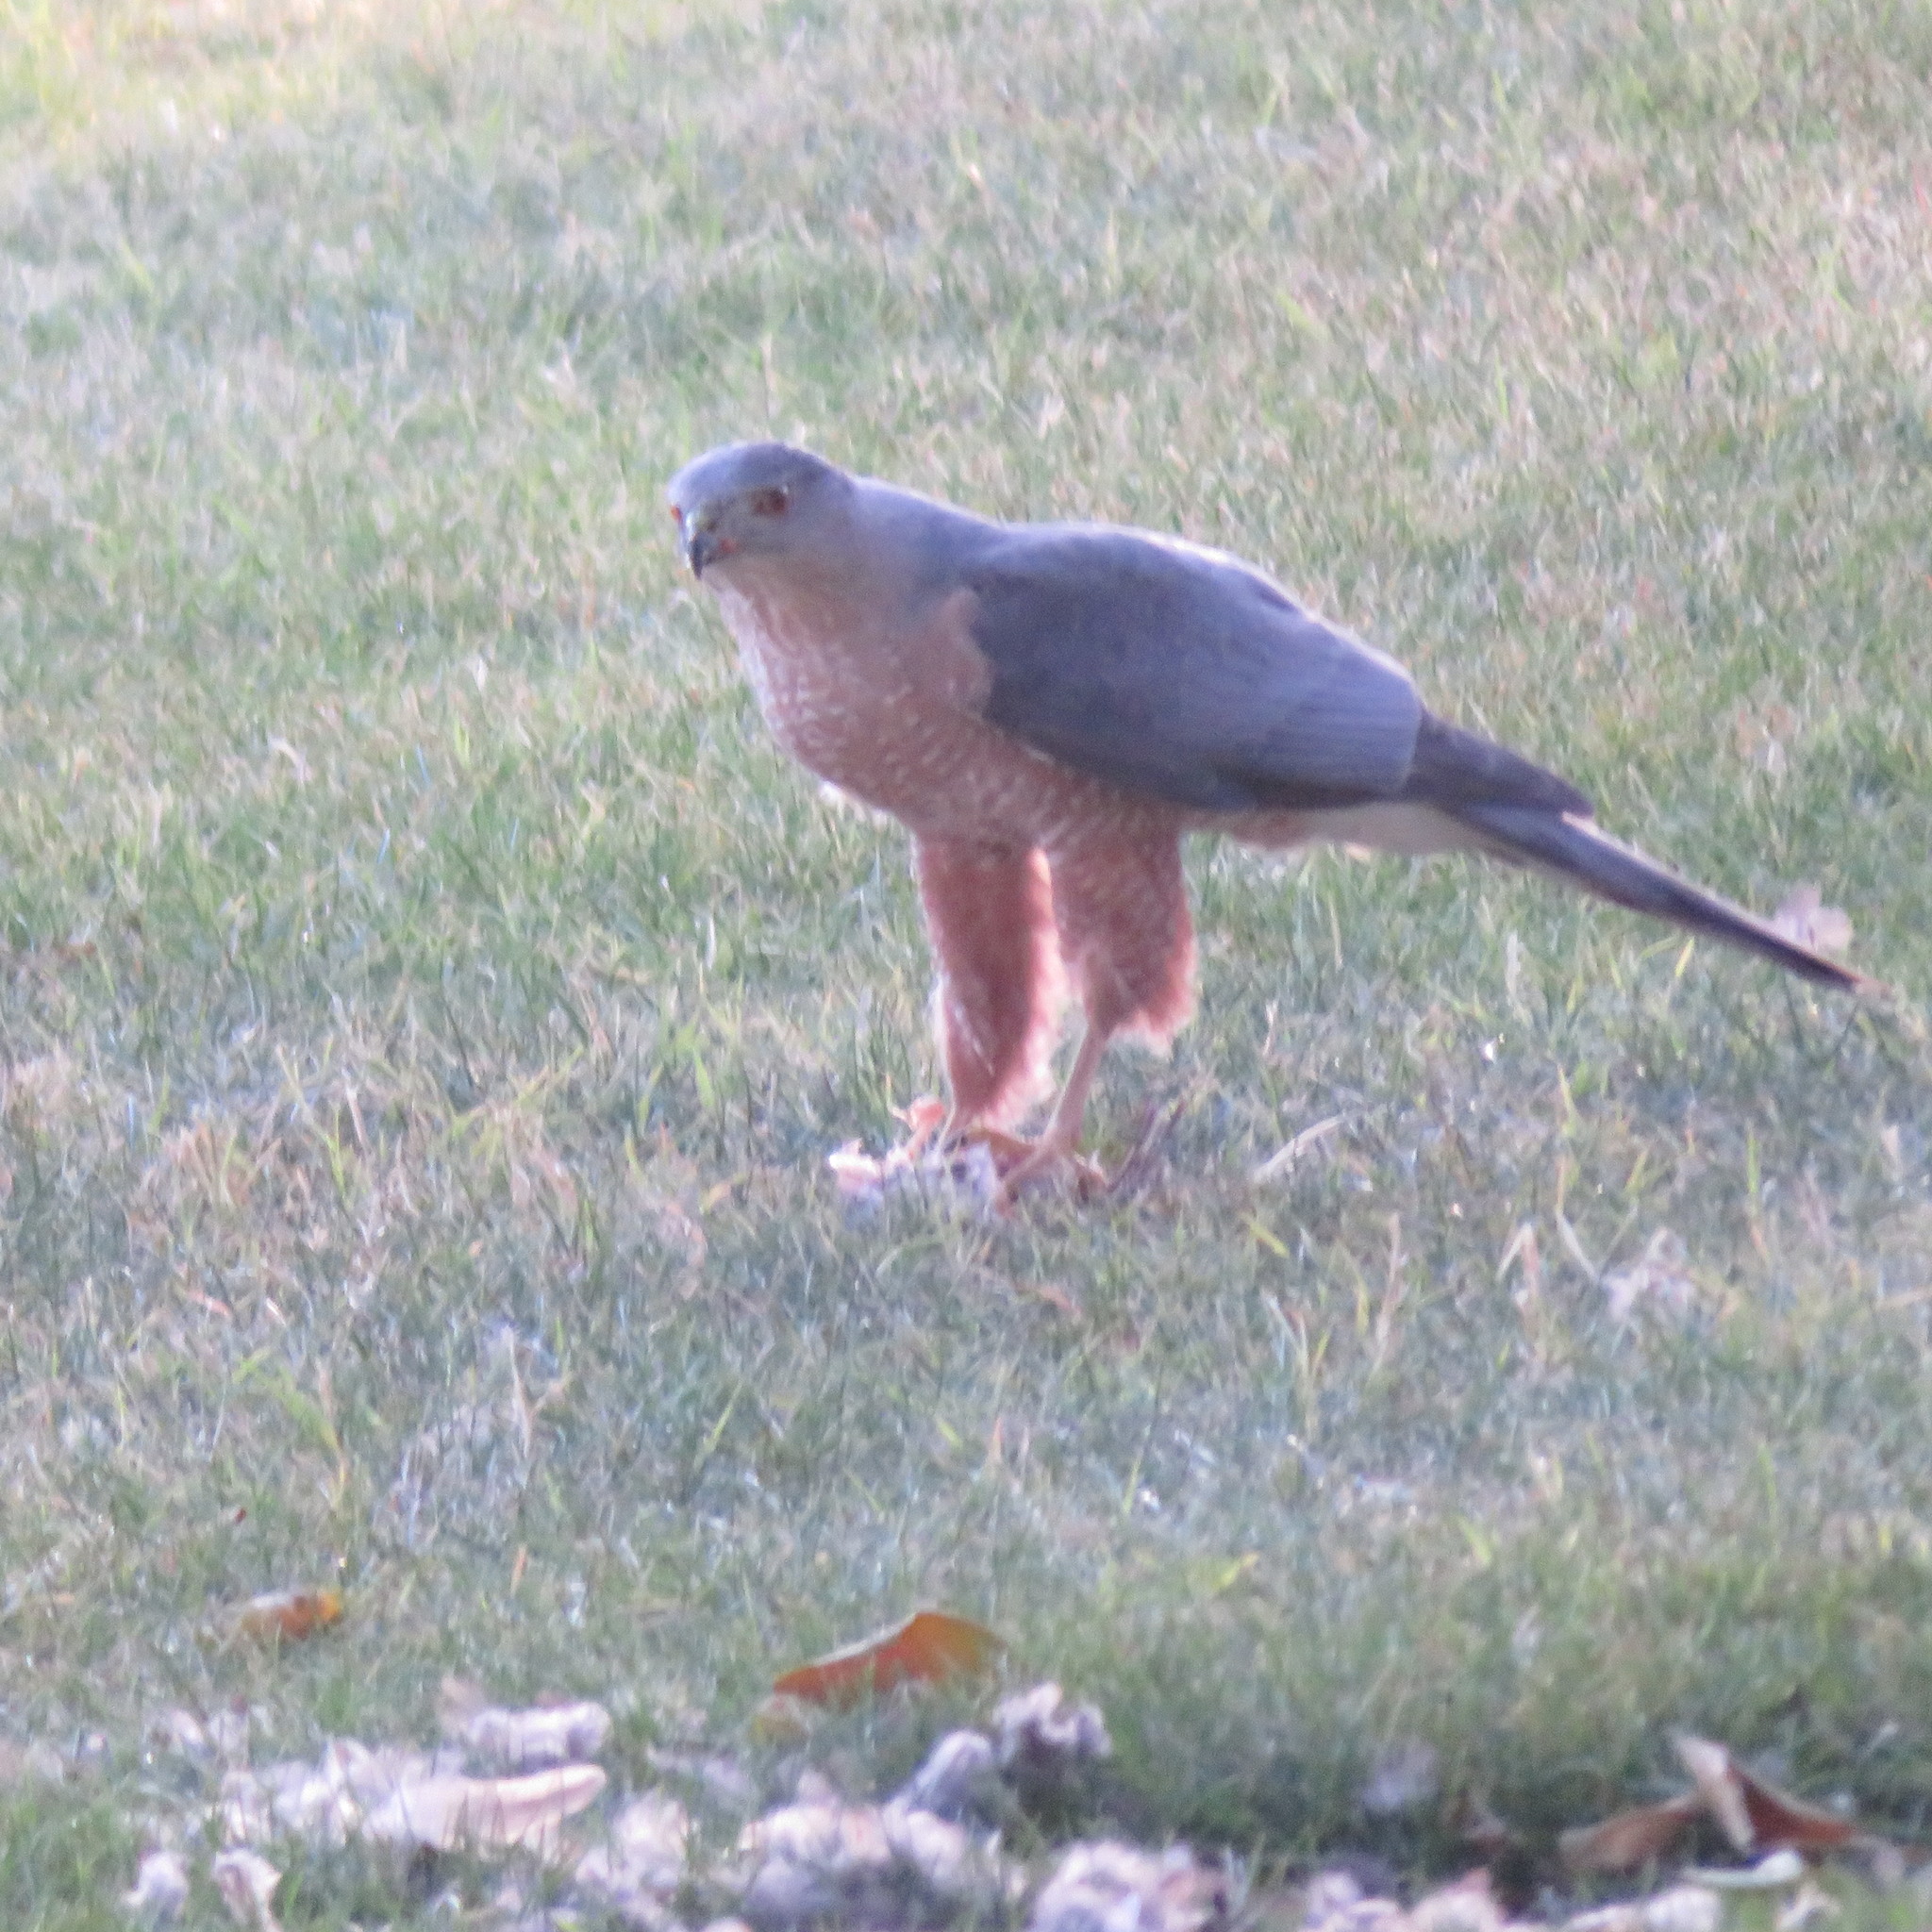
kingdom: Animalia
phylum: Chordata
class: Aves
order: Accipitriformes
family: Accipitridae
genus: Accipiter
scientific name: Accipiter cooperii
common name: Cooper's hawk
